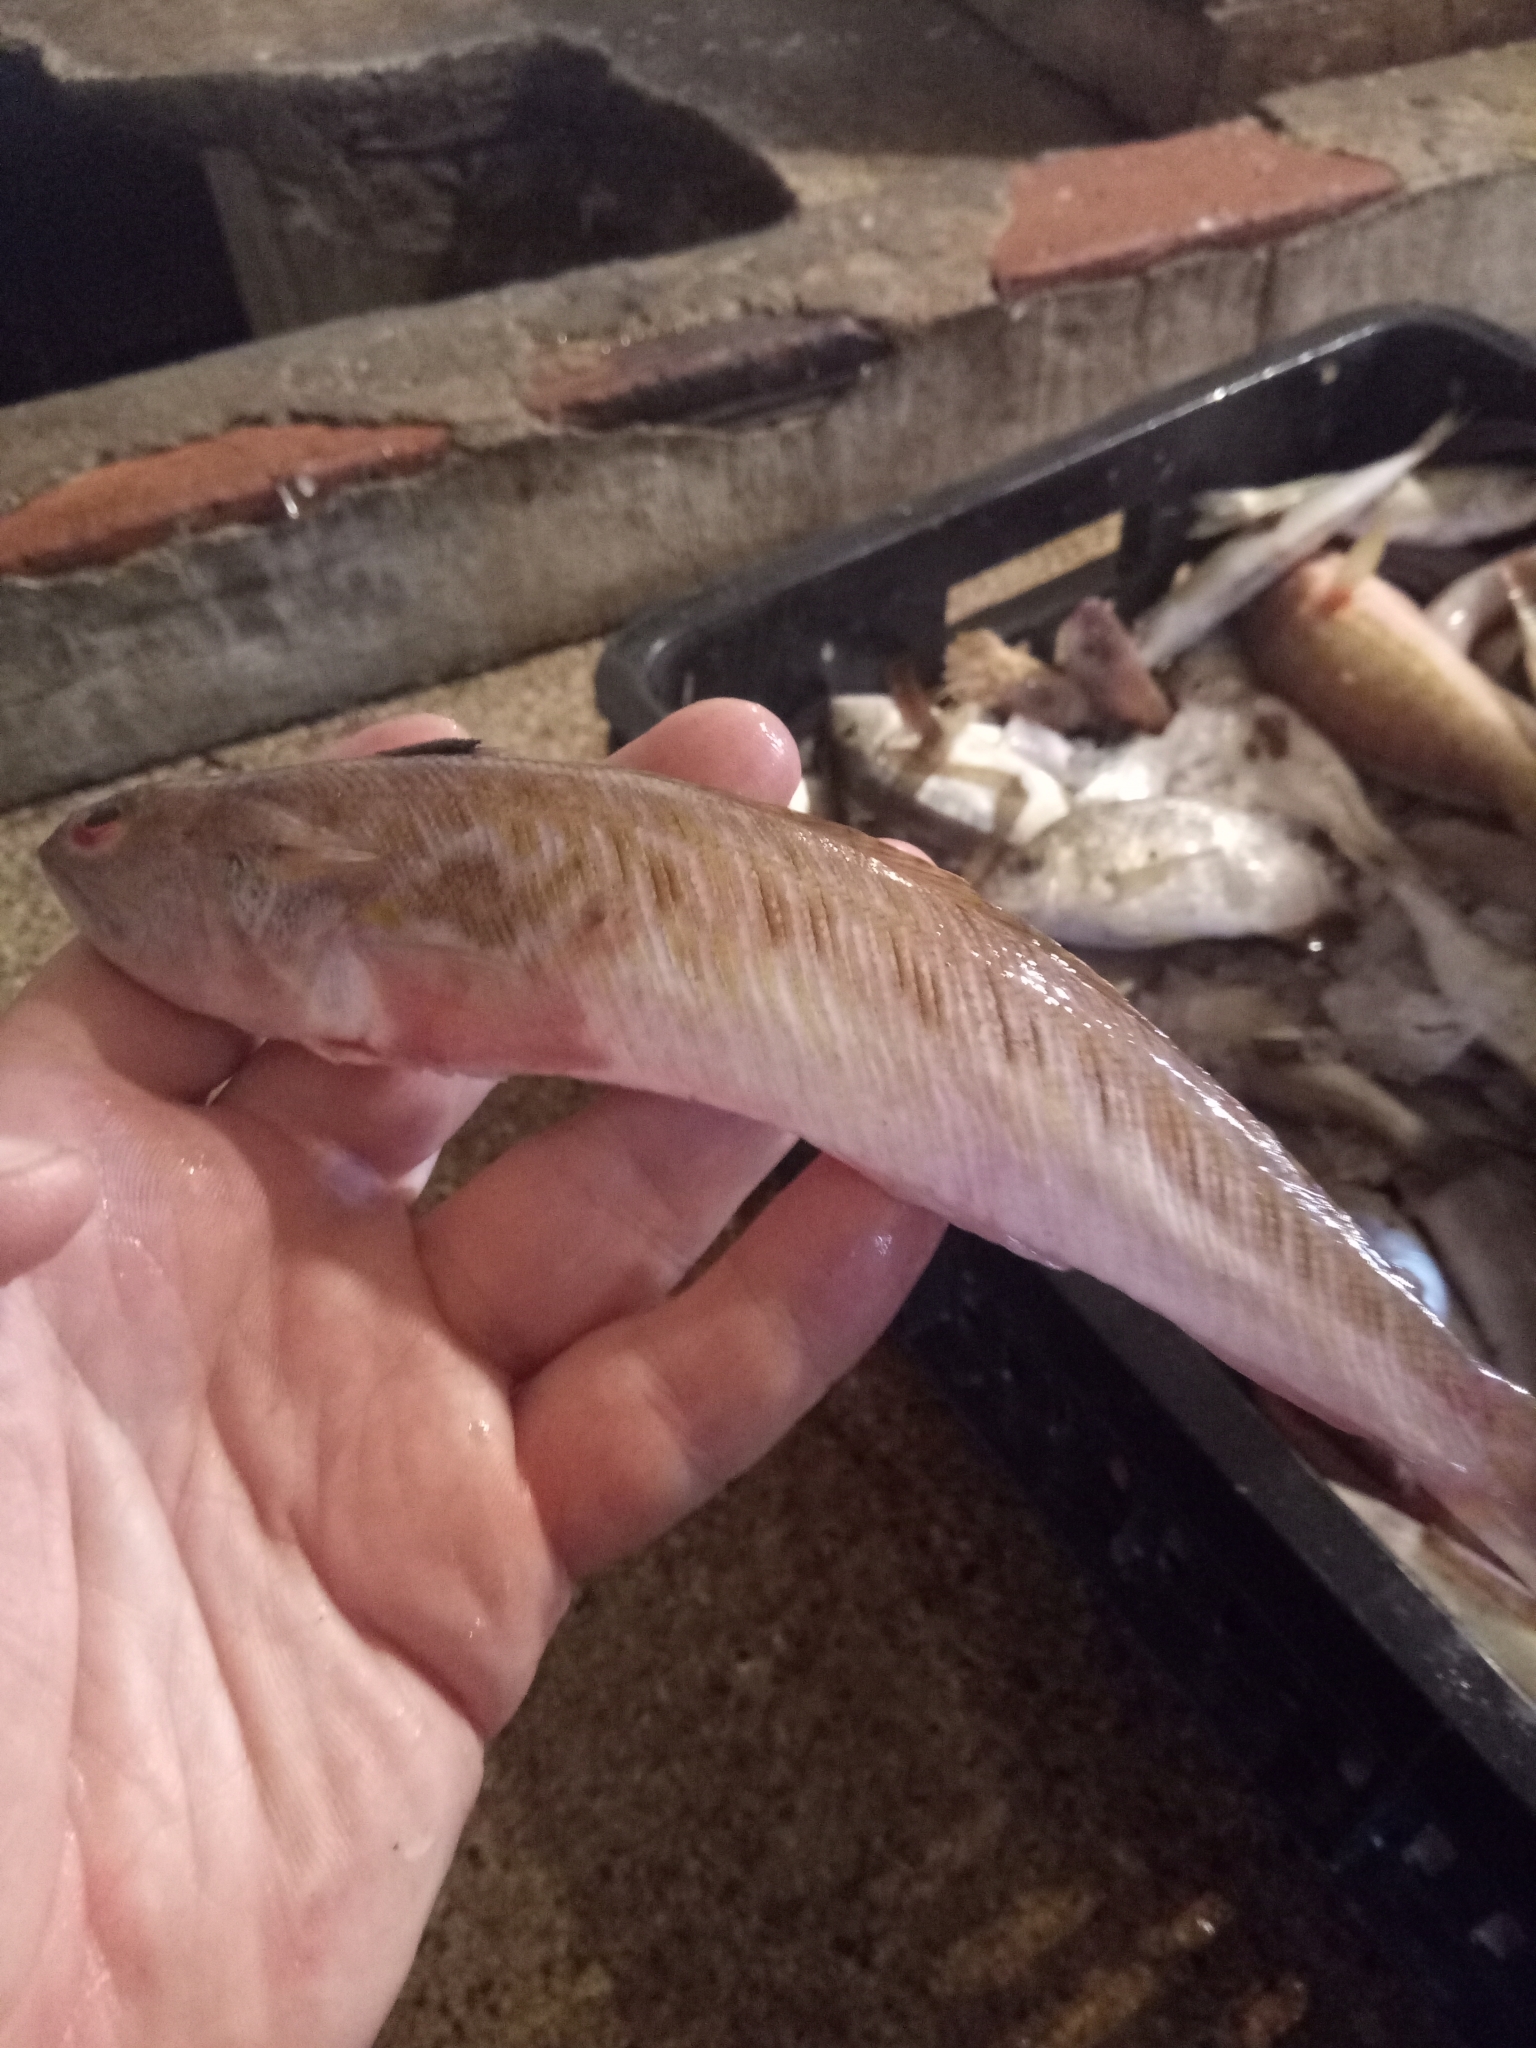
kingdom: Animalia
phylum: Chordata
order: Perciformes
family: Trachinidae
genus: Trachinus
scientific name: Trachinus draco
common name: Greater weever
